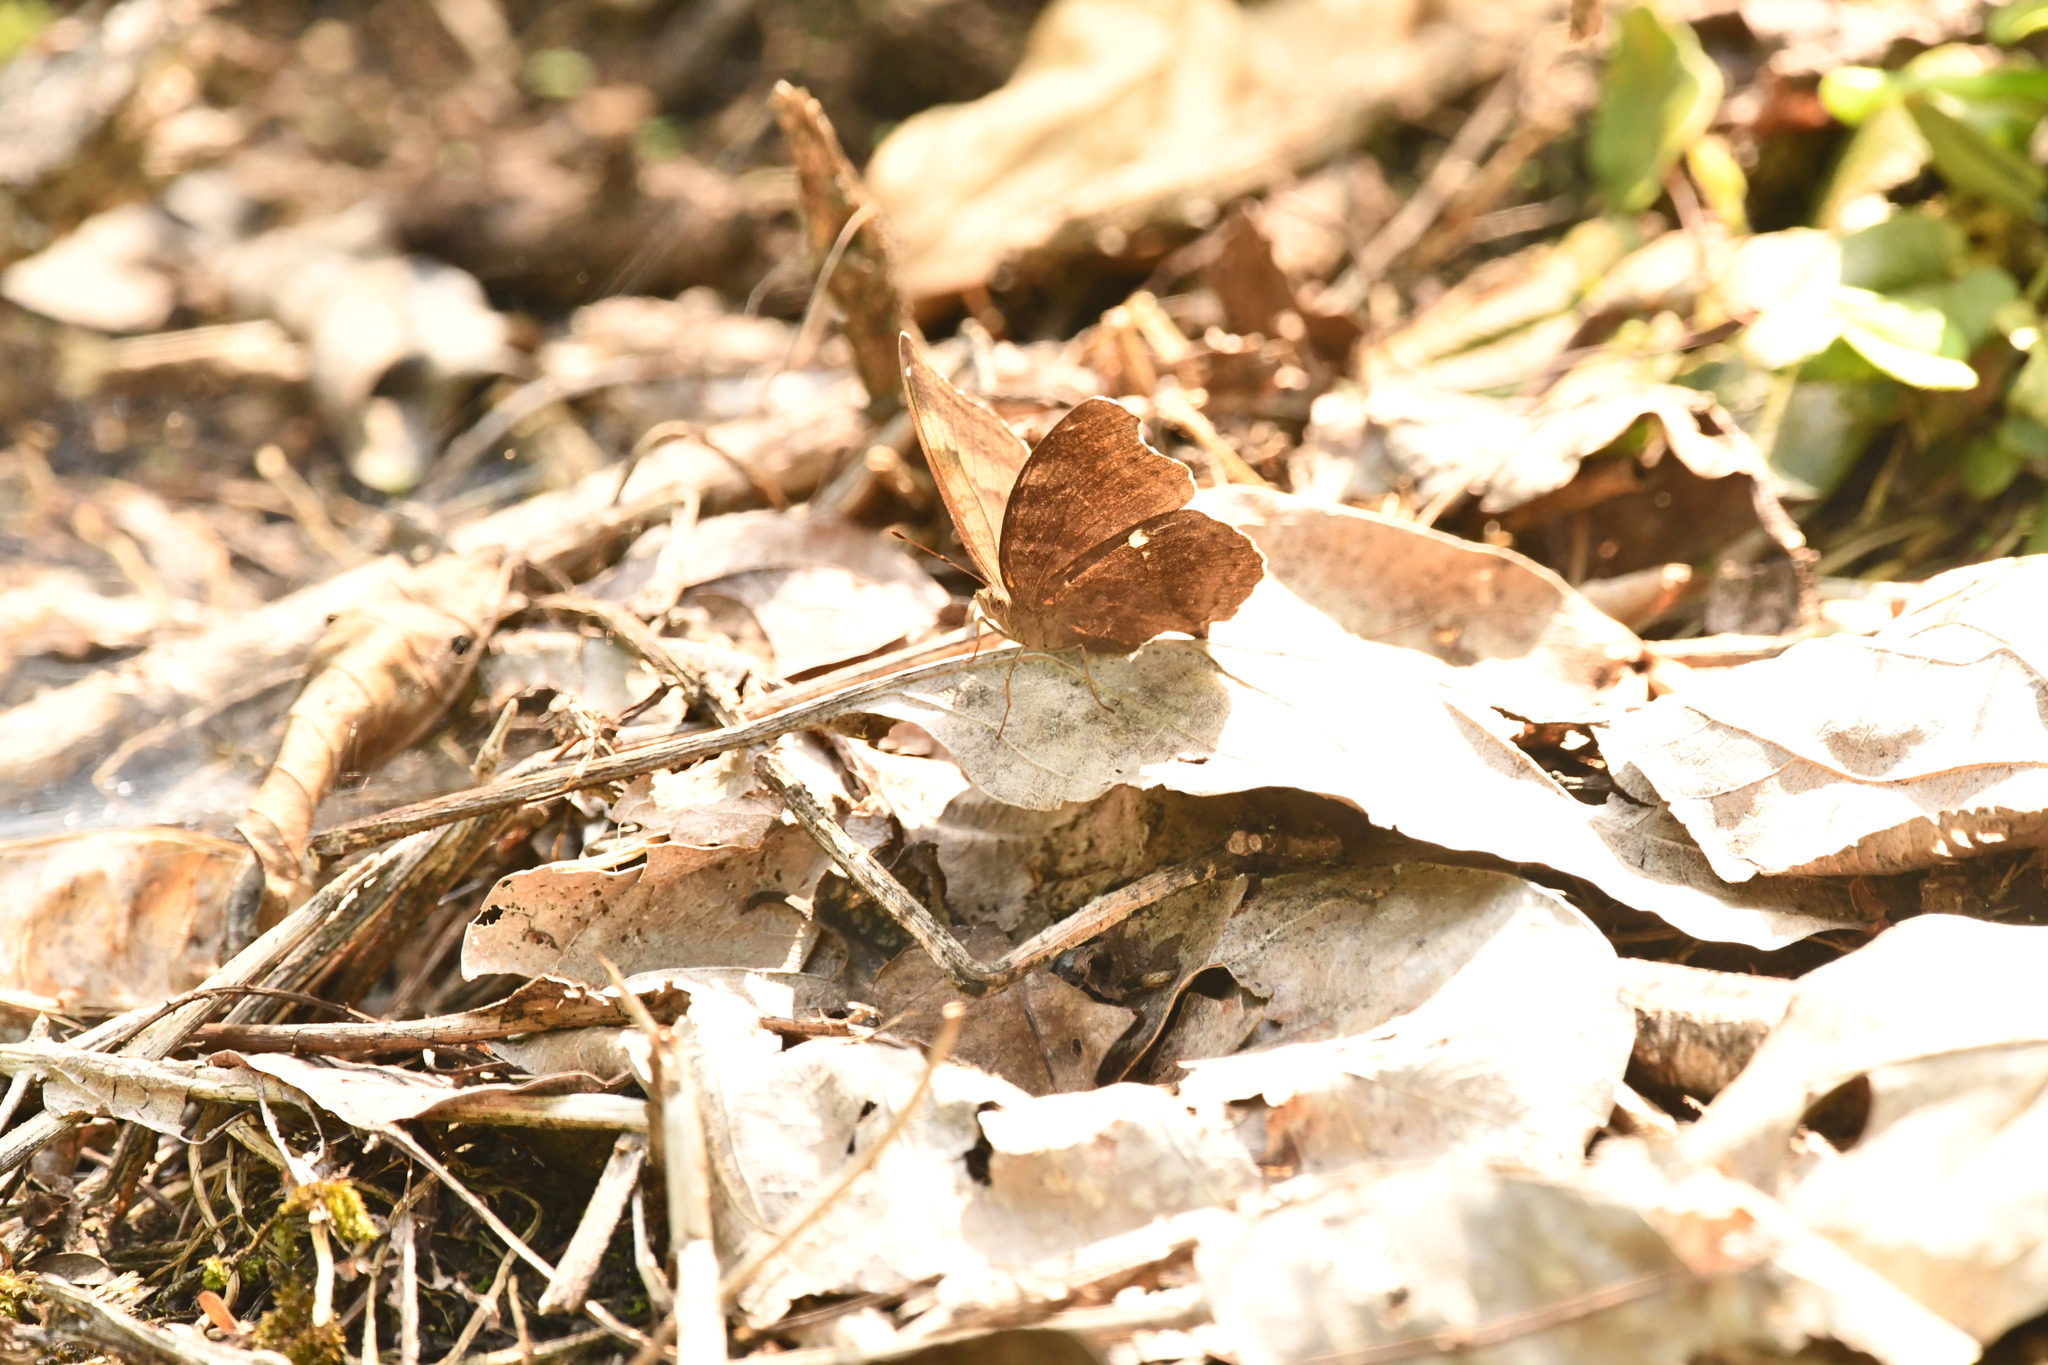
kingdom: Animalia
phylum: Arthropoda
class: Insecta
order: Lepidoptera
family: Nymphalidae
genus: Junonia
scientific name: Junonia iphita
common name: Chocolate pansy
